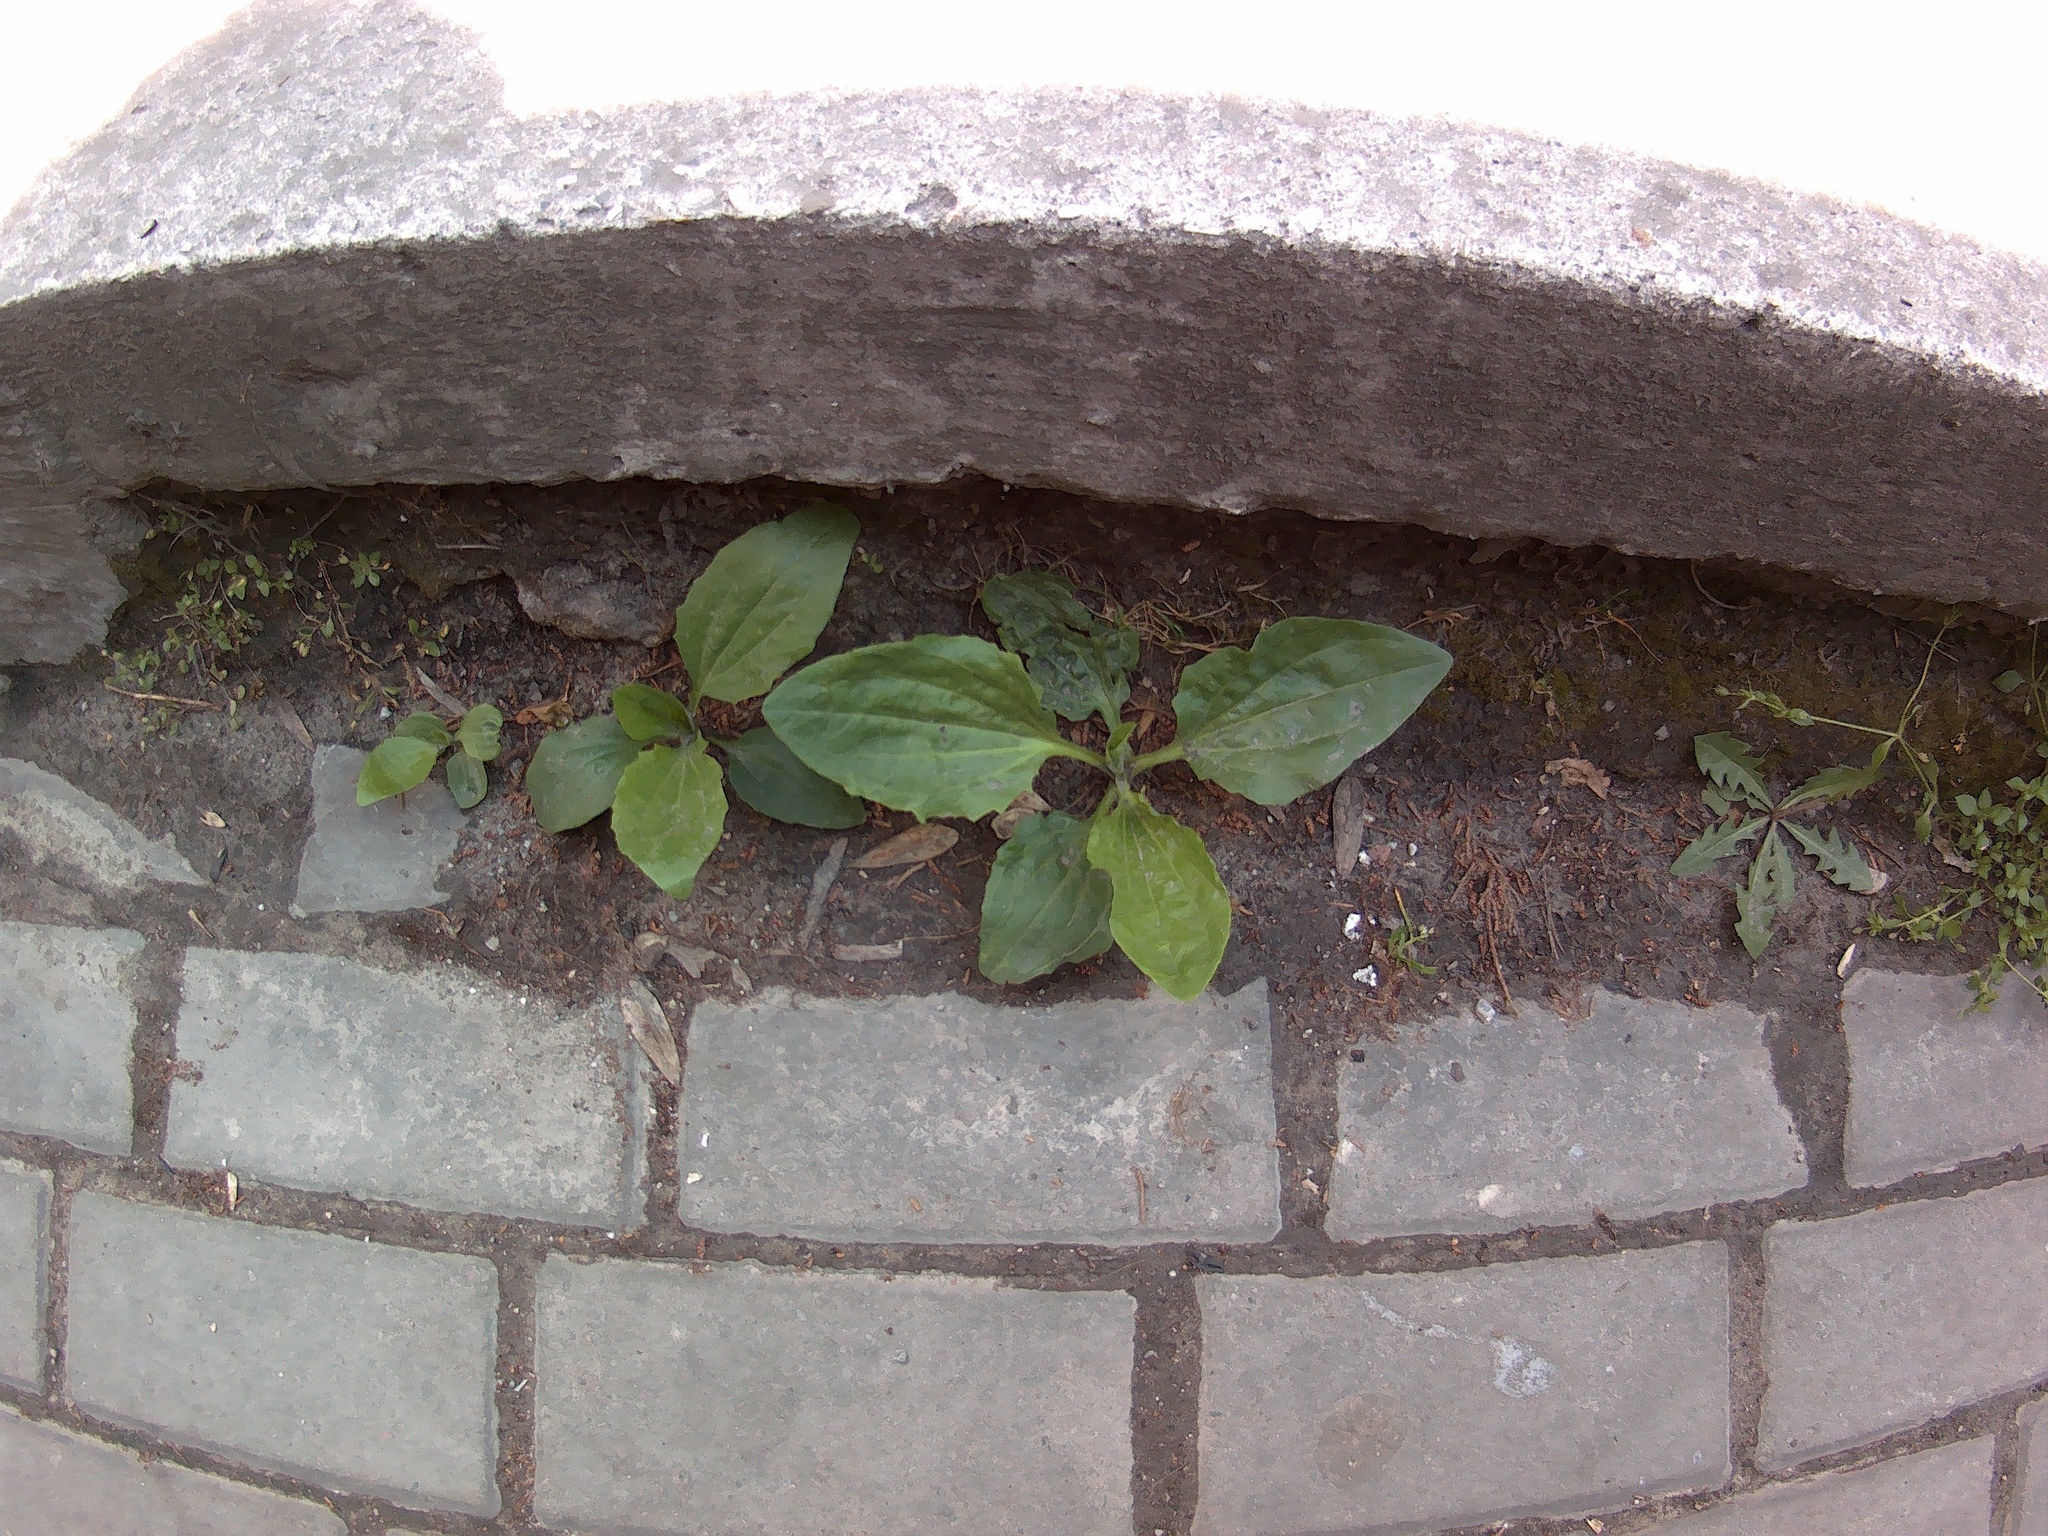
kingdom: Plantae
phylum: Tracheophyta
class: Magnoliopsida
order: Lamiales
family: Plantaginaceae
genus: Plantago
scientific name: Plantago major
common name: Common plantain
